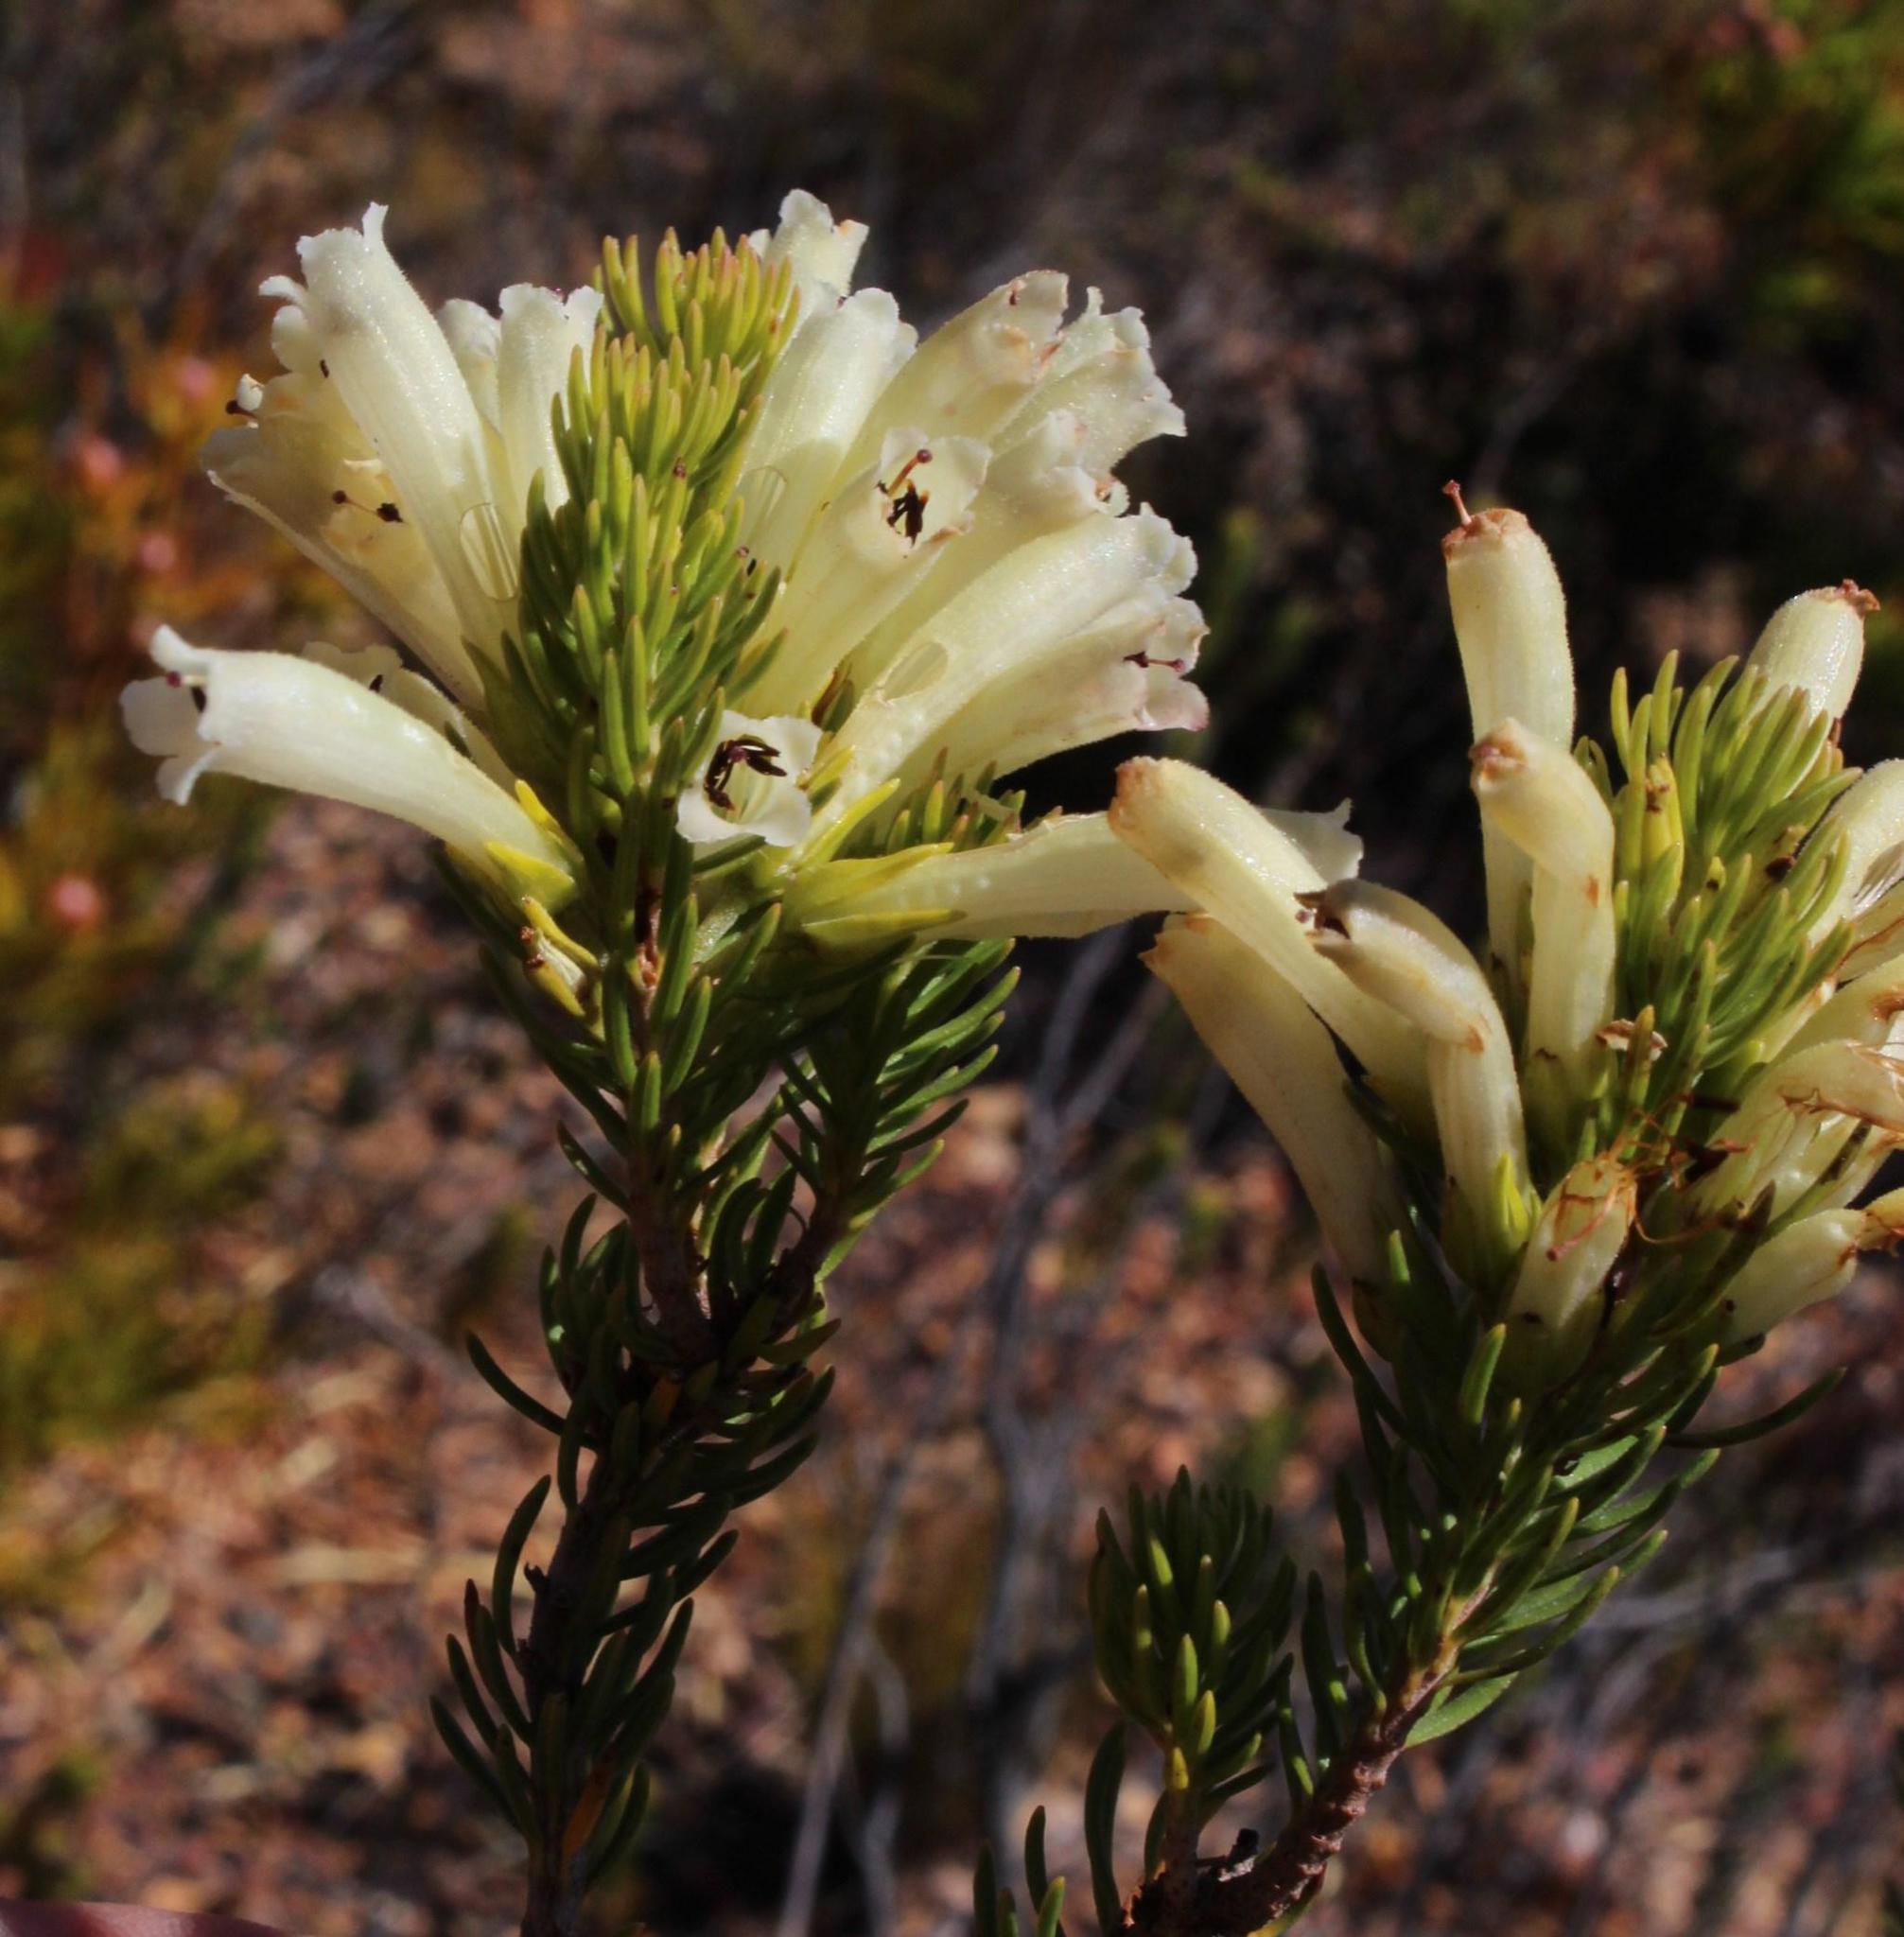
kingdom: Plantae
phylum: Tracheophyta
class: Magnoliopsida
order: Ericales
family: Ericaceae
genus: Erica
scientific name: Erica viscaria
